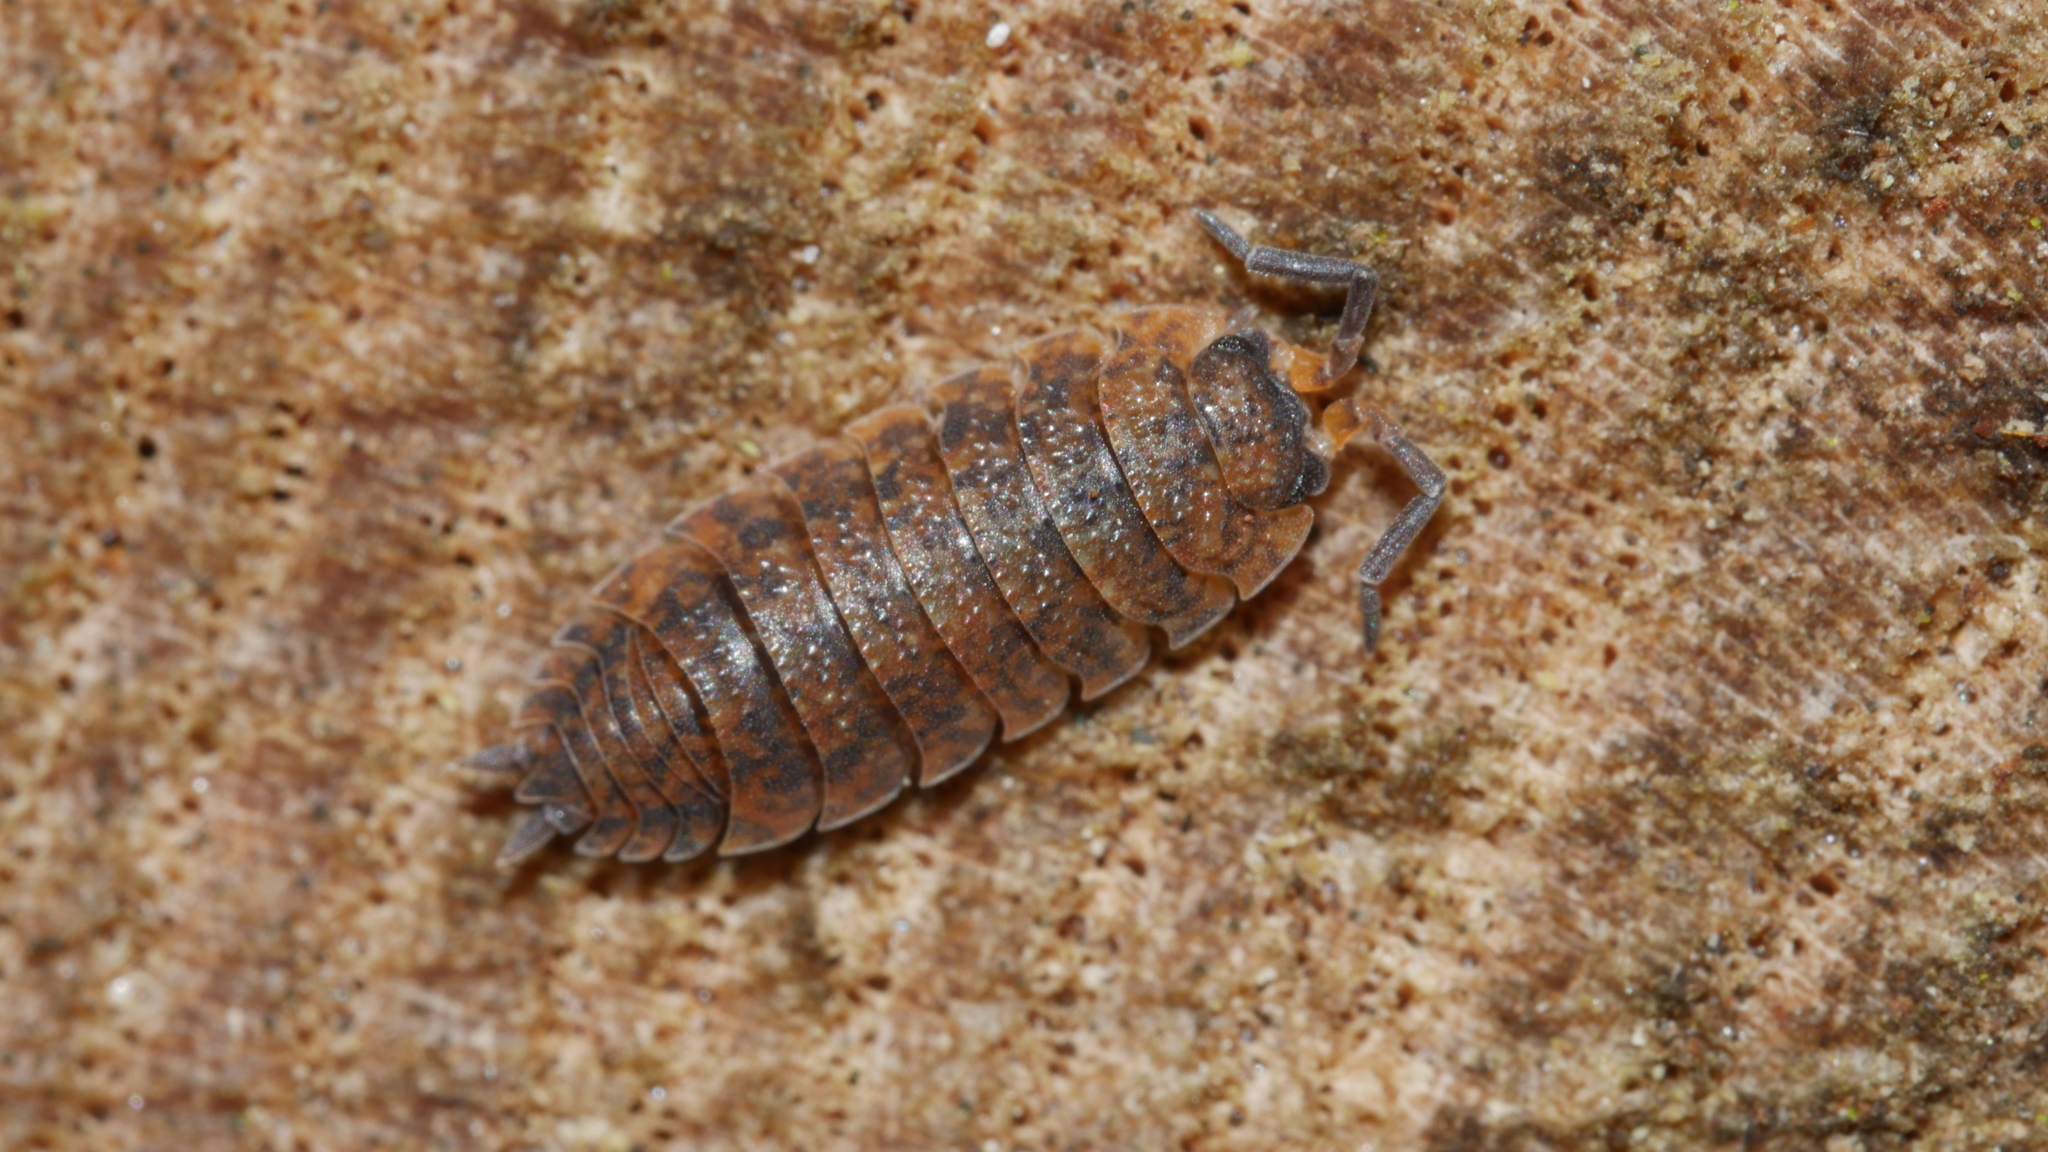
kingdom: Animalia
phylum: Arthropoda
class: Malacostraca
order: Isopoda
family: Porcellionidae
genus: Porcellio
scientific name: Porcellio scaber
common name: Common rough woodlouse
